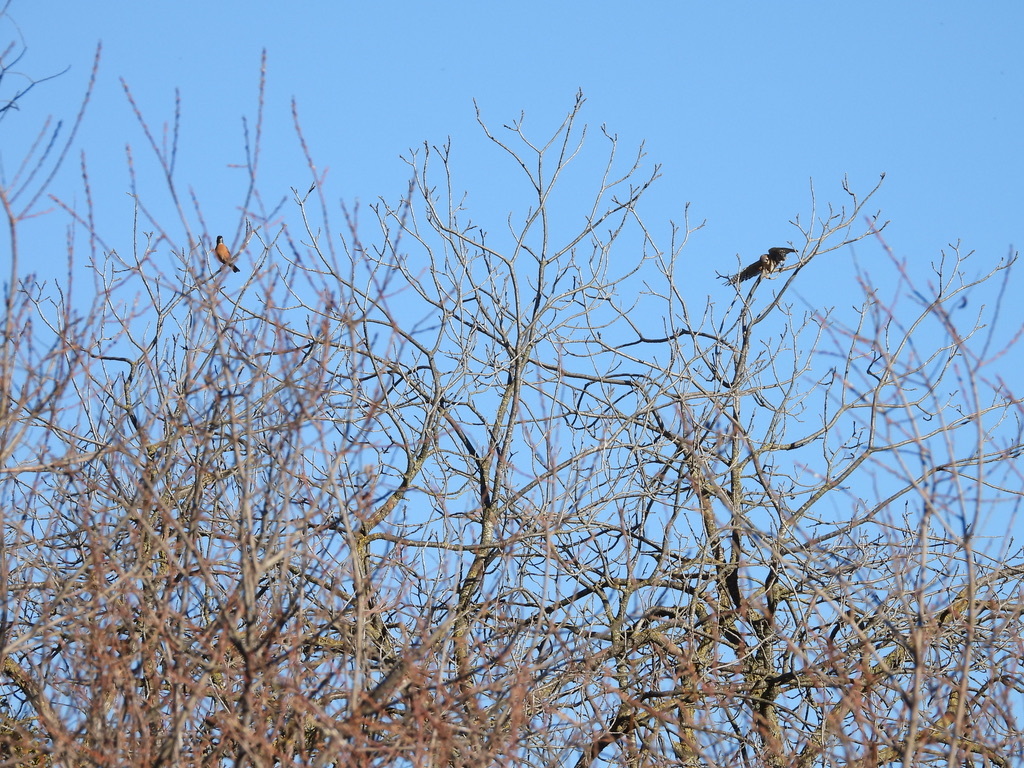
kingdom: Animalia
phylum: Chordata
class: Aves
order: Passeriformes
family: Turdidae
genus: Turdus
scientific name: Turdus migratorius
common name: American robin
